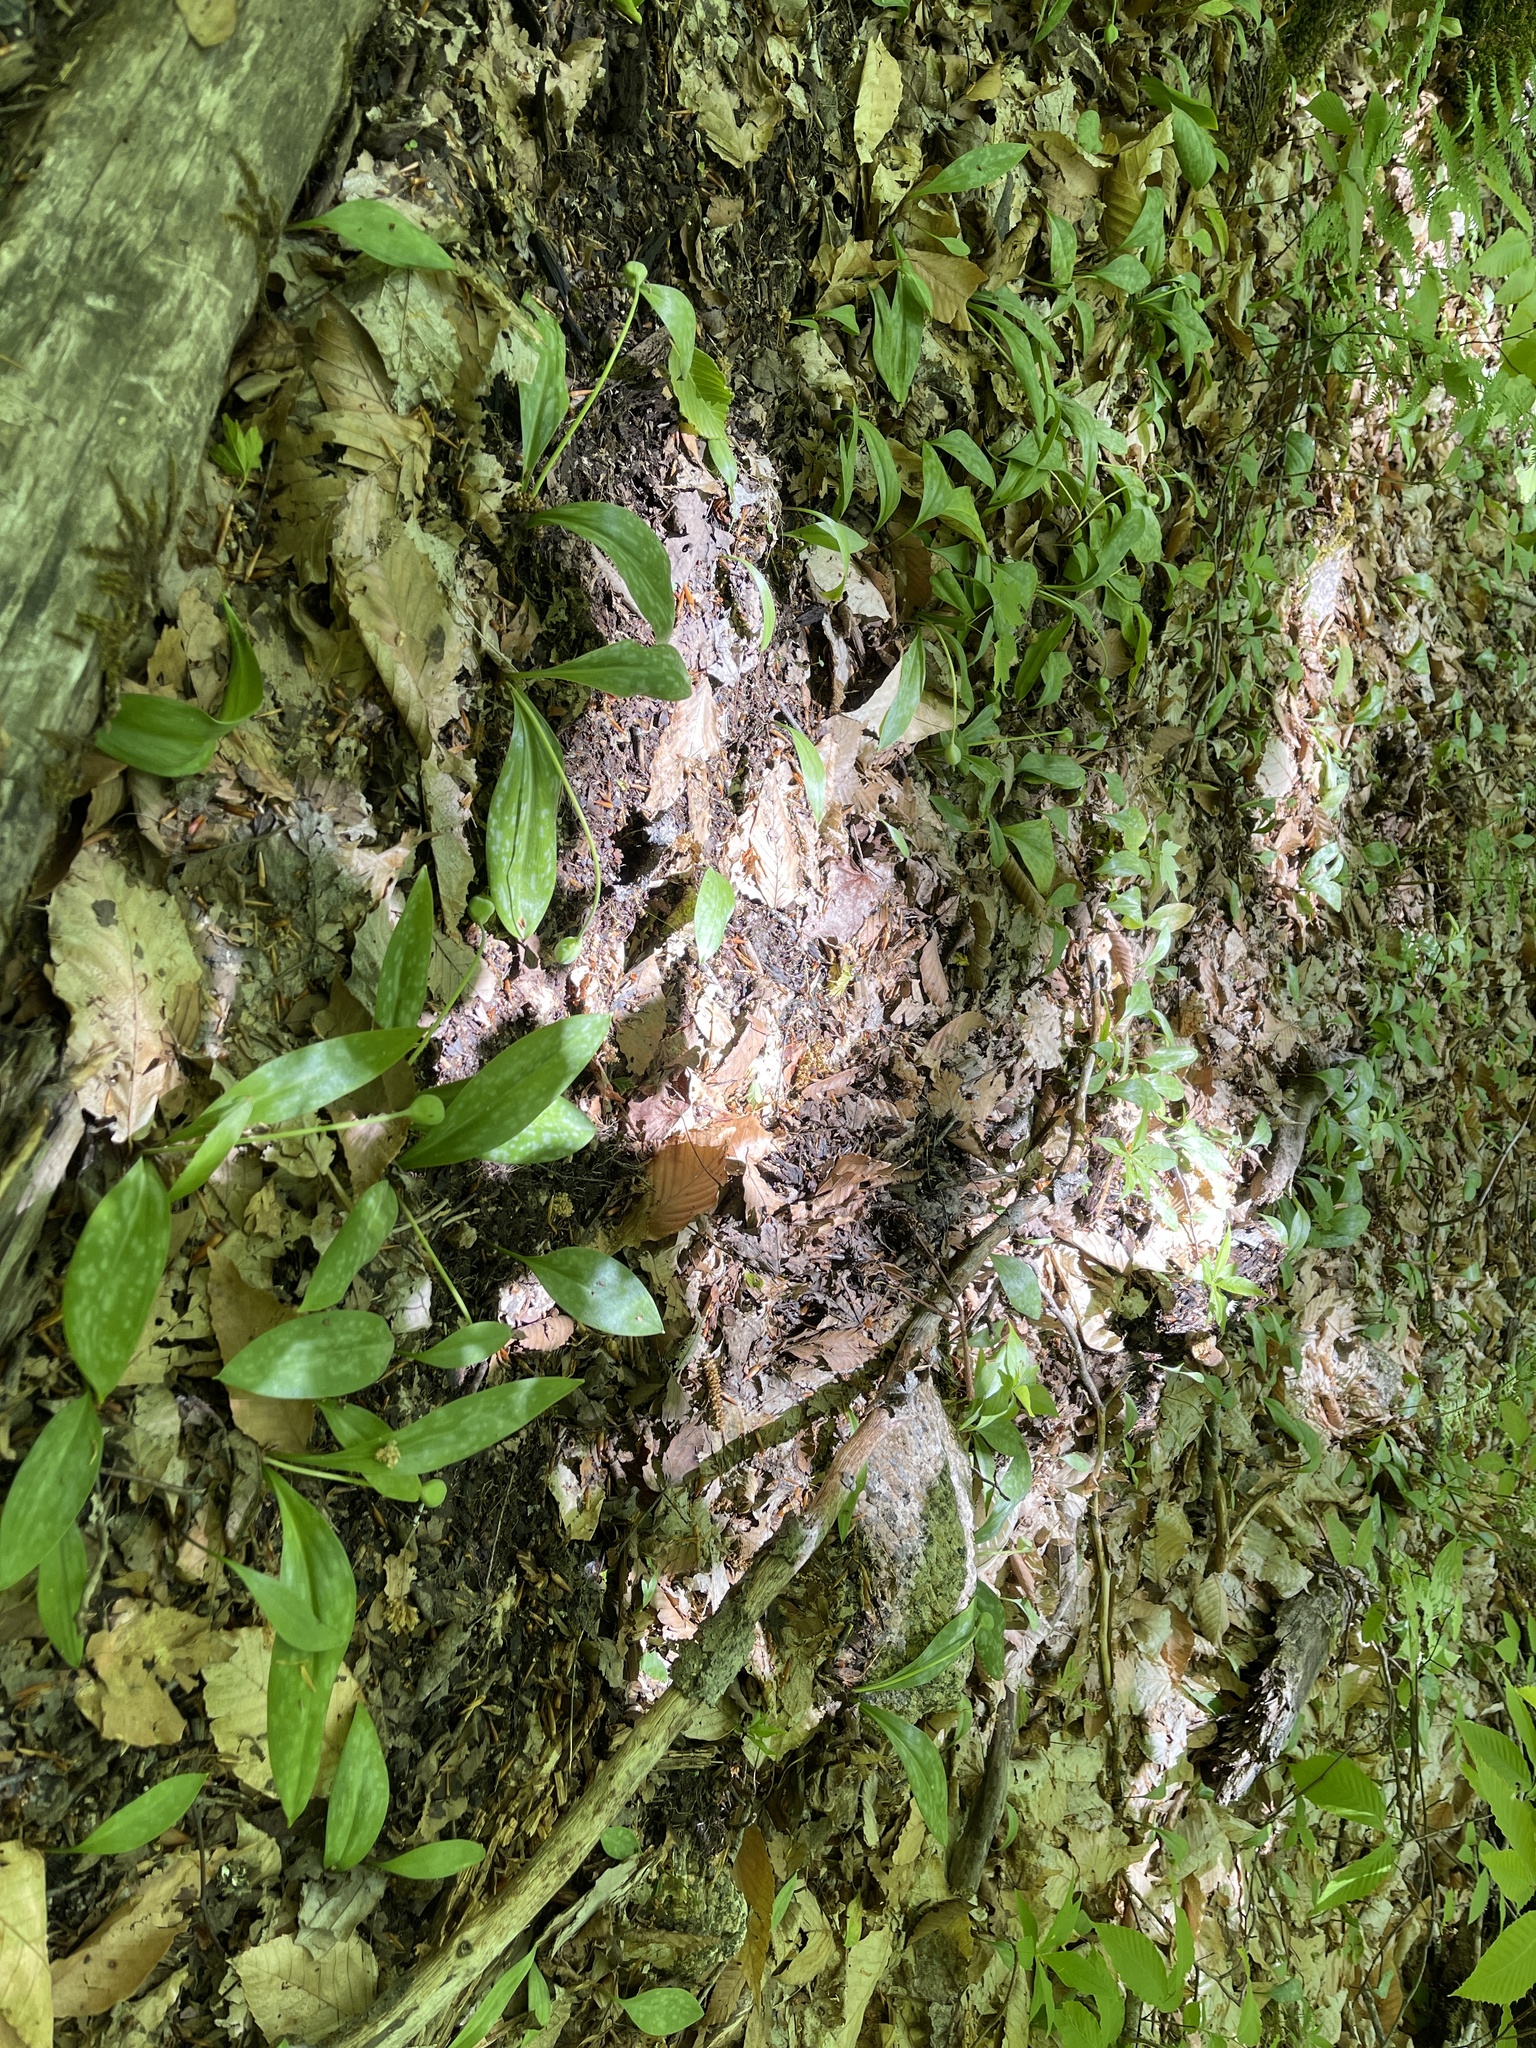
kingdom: Plantae
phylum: Tracheophyta
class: Liliopsida
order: Liliales
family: Liliaceae
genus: Erythronium
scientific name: Erythronium americanum
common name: Yellow adder's-tongue
